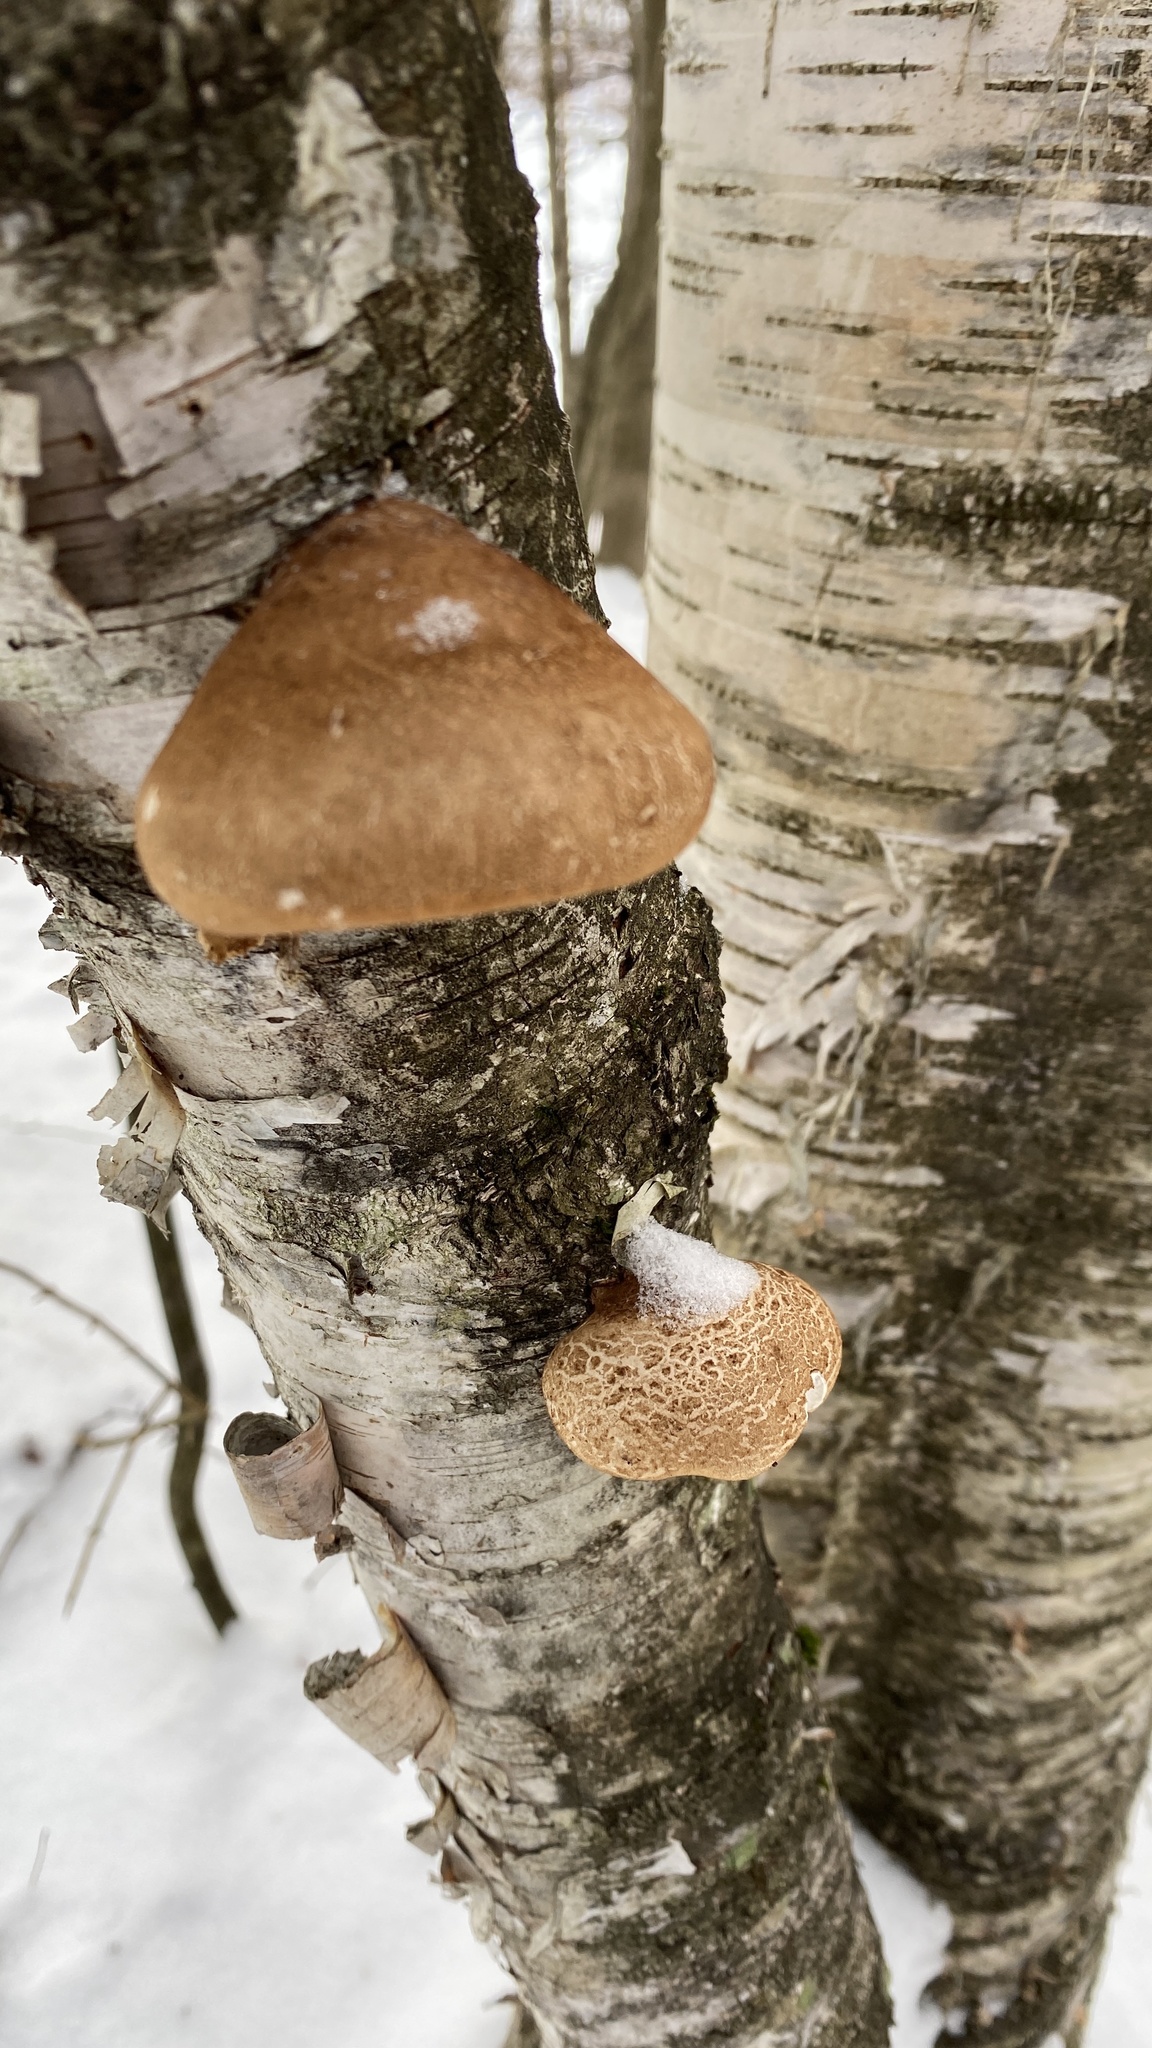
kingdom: Fungi
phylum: Basidiomycota
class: Agaricomycetes
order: Polyporales
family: Fomitopsidaceae
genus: Fomitopsis
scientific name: Fomitopsis betulina
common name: Birch polypore
